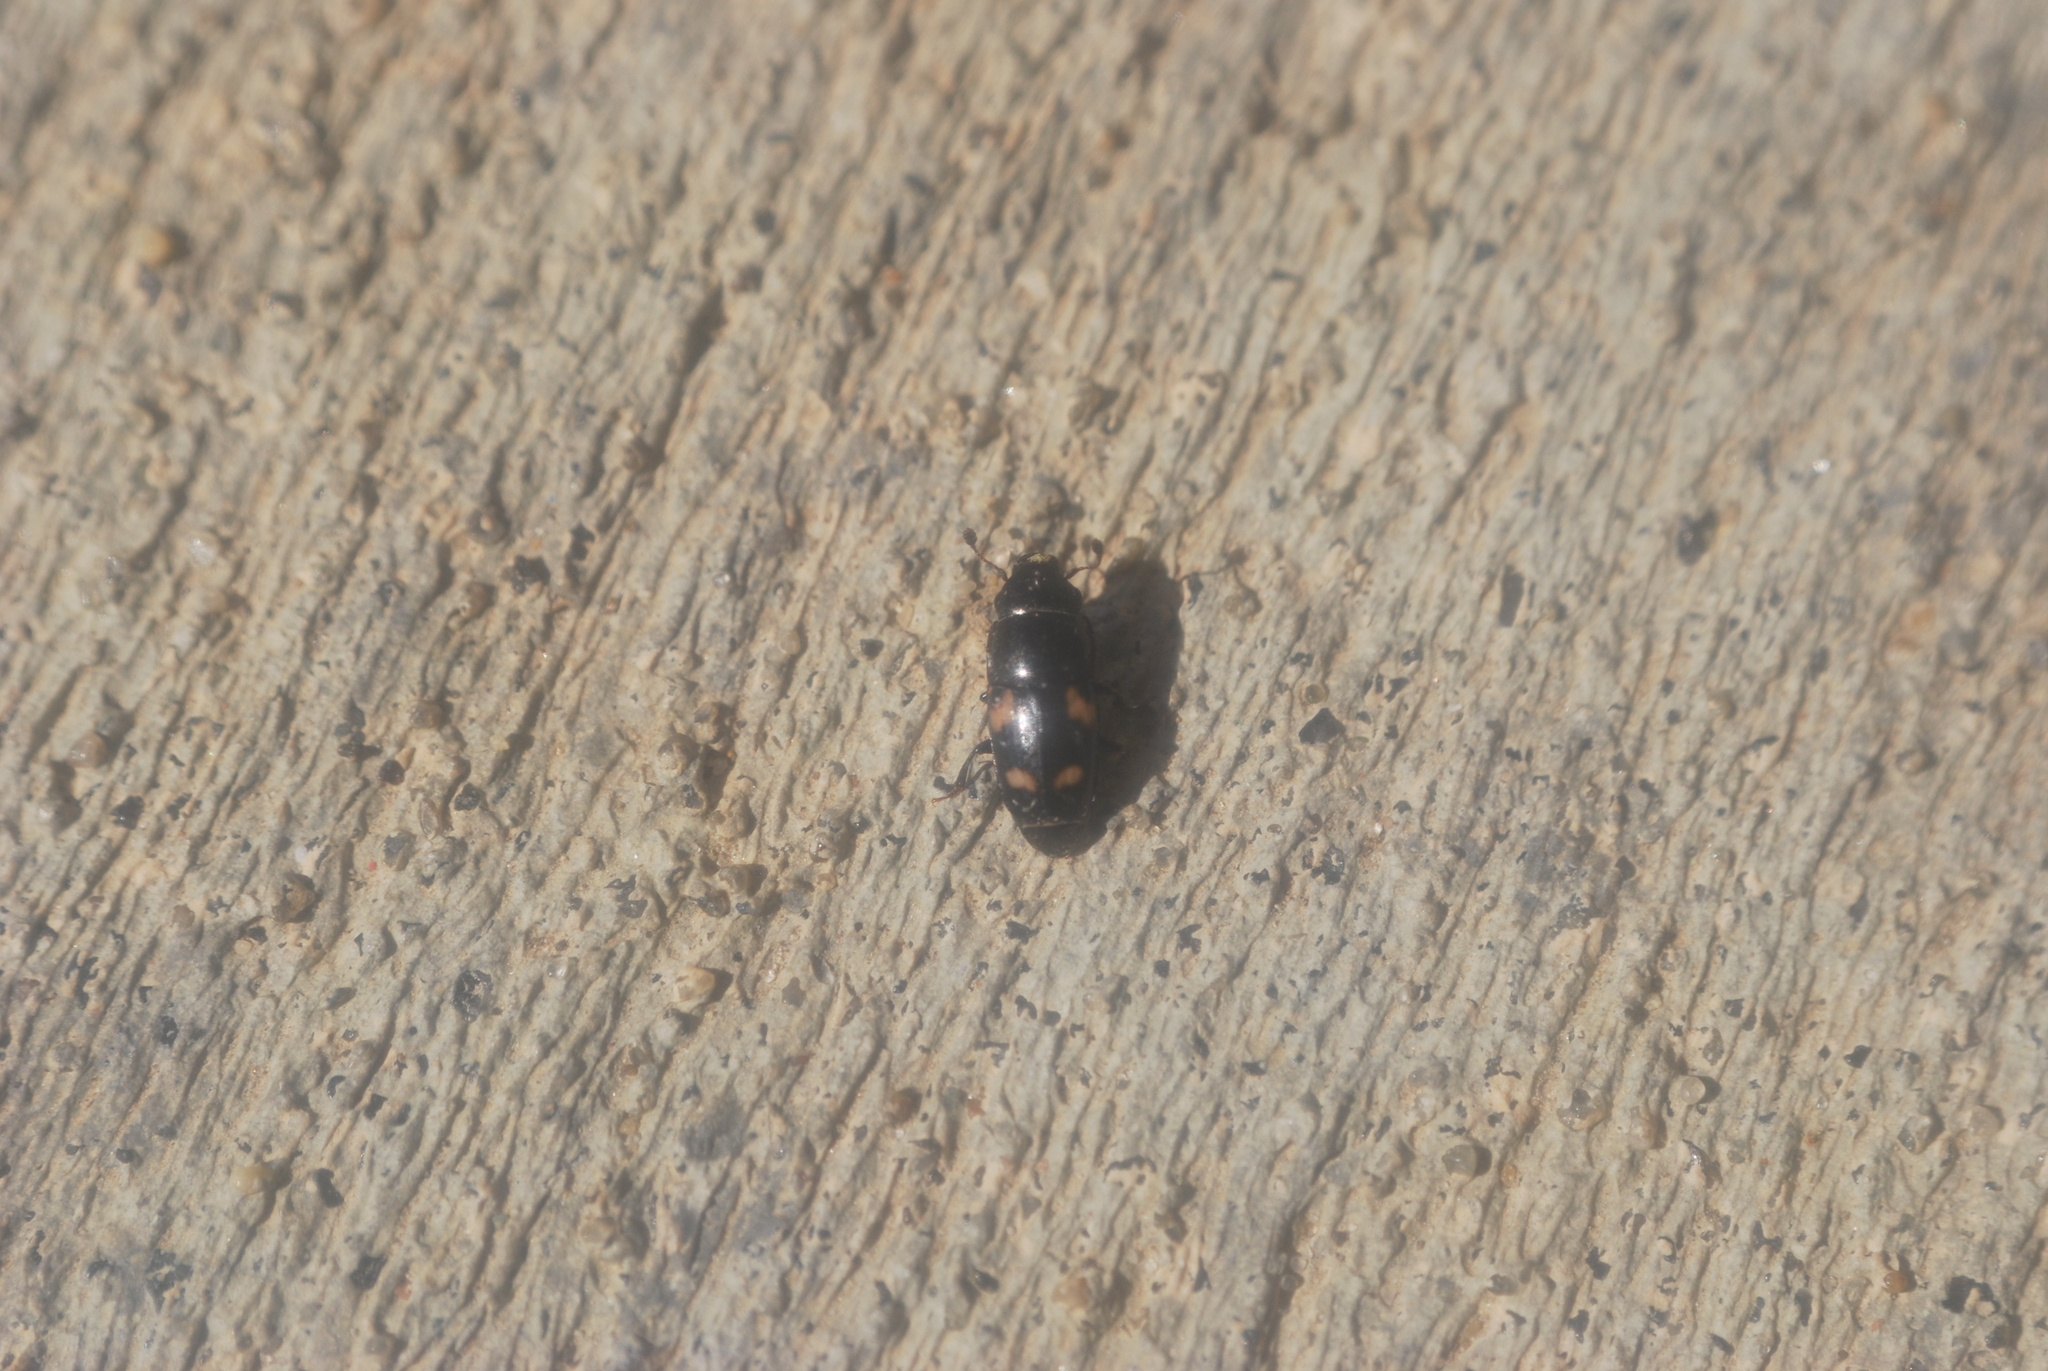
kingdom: Animalia
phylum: Arthropoda
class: Insecta
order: Coleoptera
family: Nitidulidae
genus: Glischrochilus
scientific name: Glischrochilus quadrisignatus
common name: Picnic beetle
